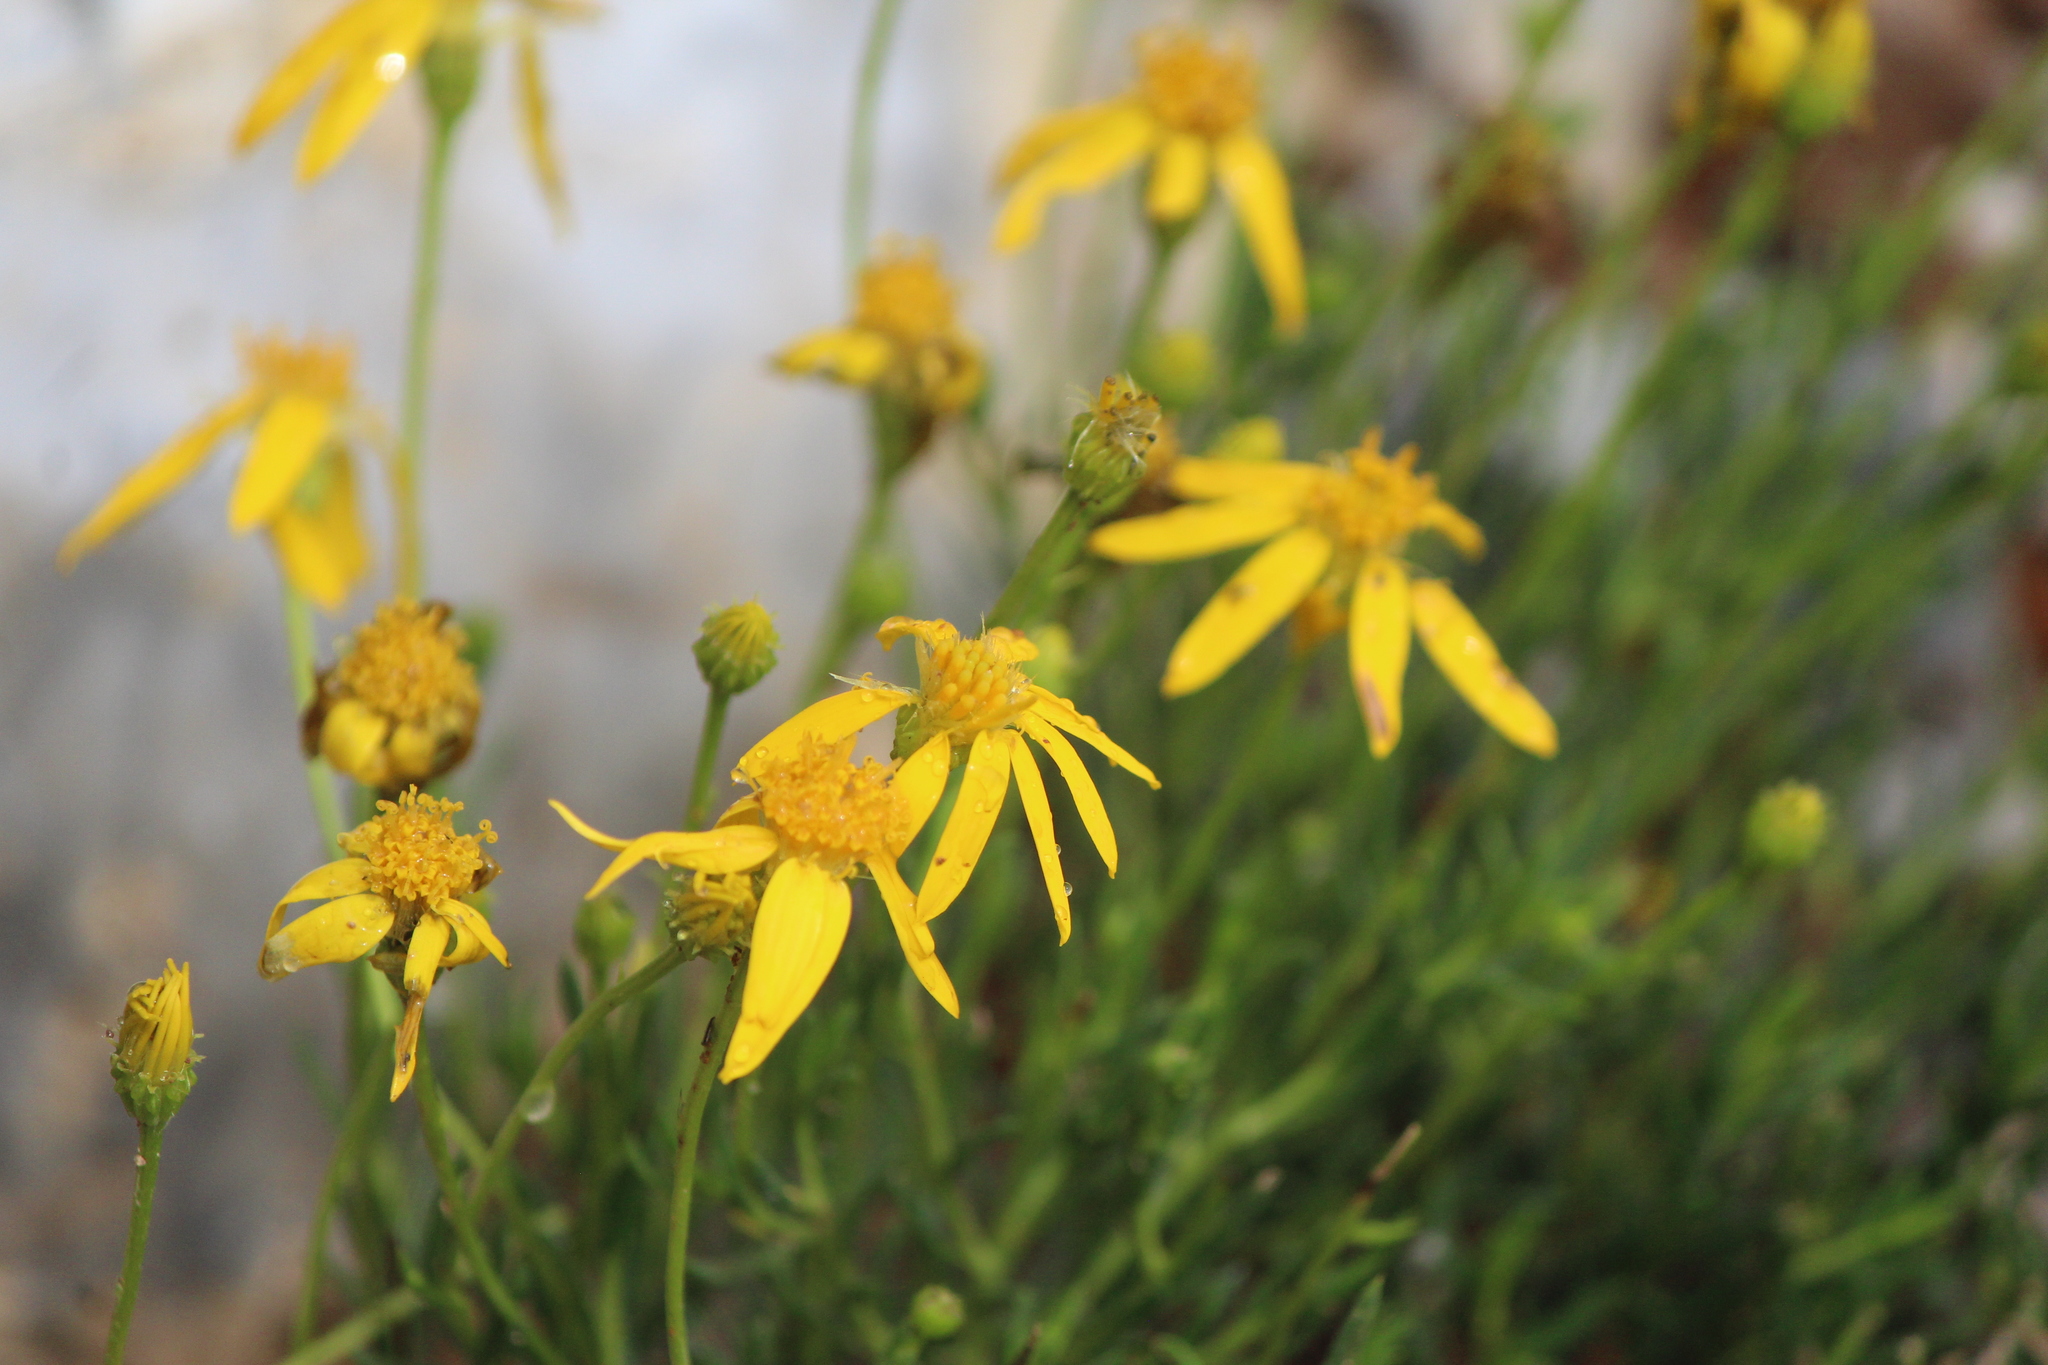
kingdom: Plantae
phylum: Tracheophyta
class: Magnoliopsida
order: Asterales
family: Asteraceae
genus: Chrysactinia
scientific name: Chrysactinia mexicana
